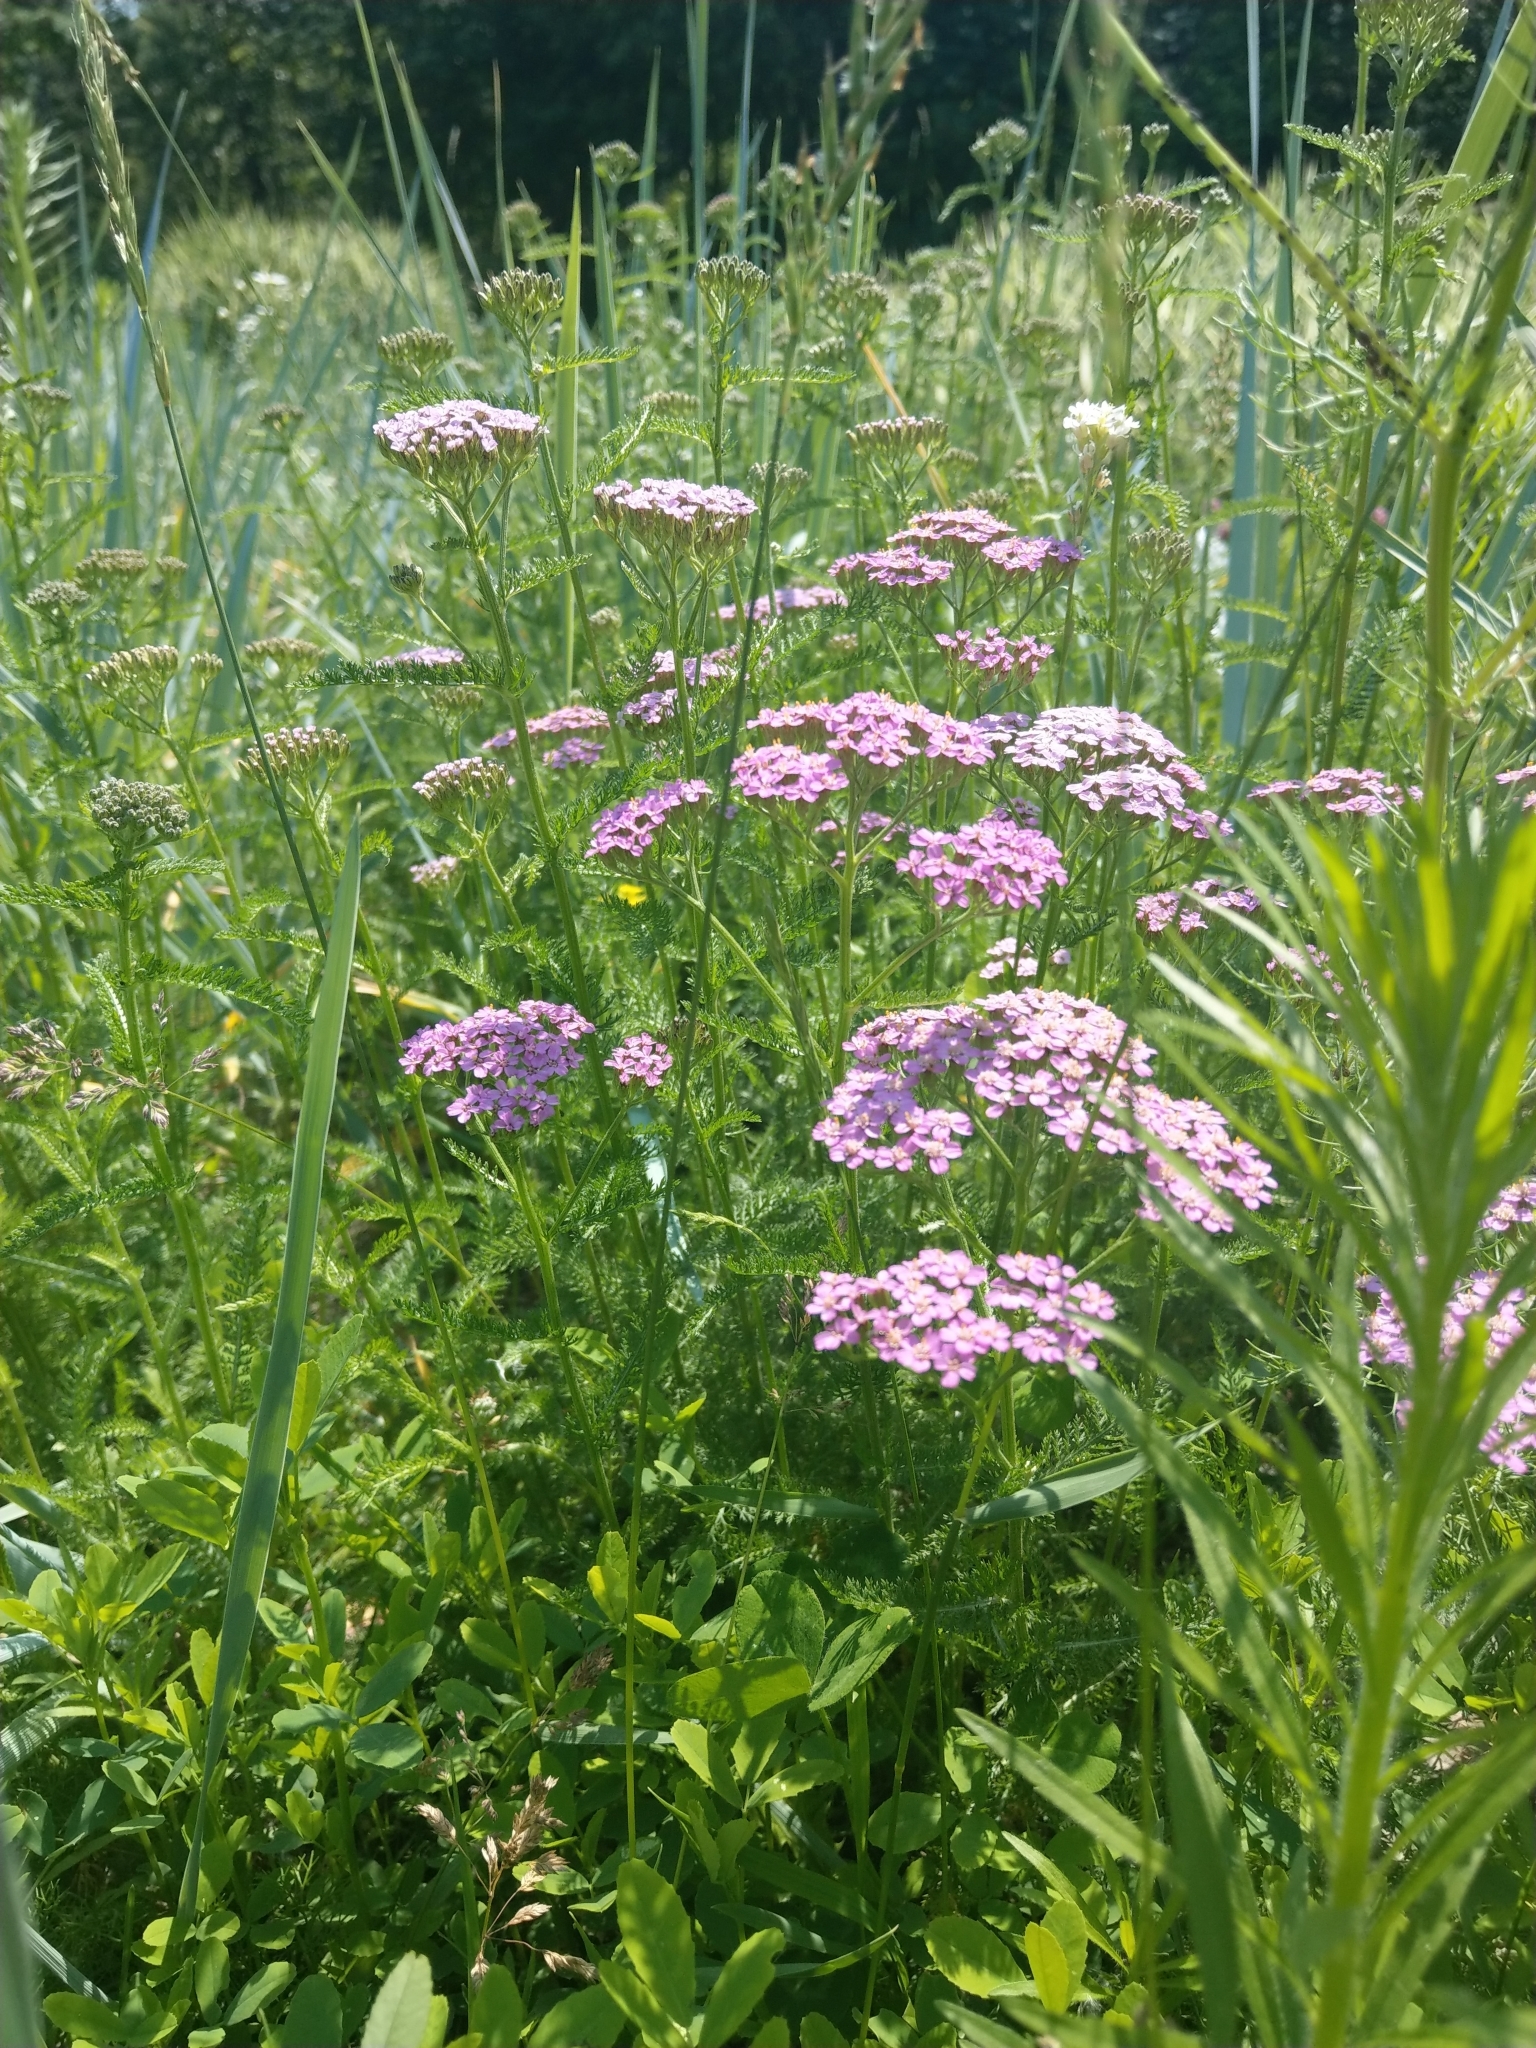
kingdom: Plantae
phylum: Tracheophyta
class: Magnoliopsida
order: Asterales
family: Asteraceae
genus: Achillea
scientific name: Achillea millefolium
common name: Yarrow
